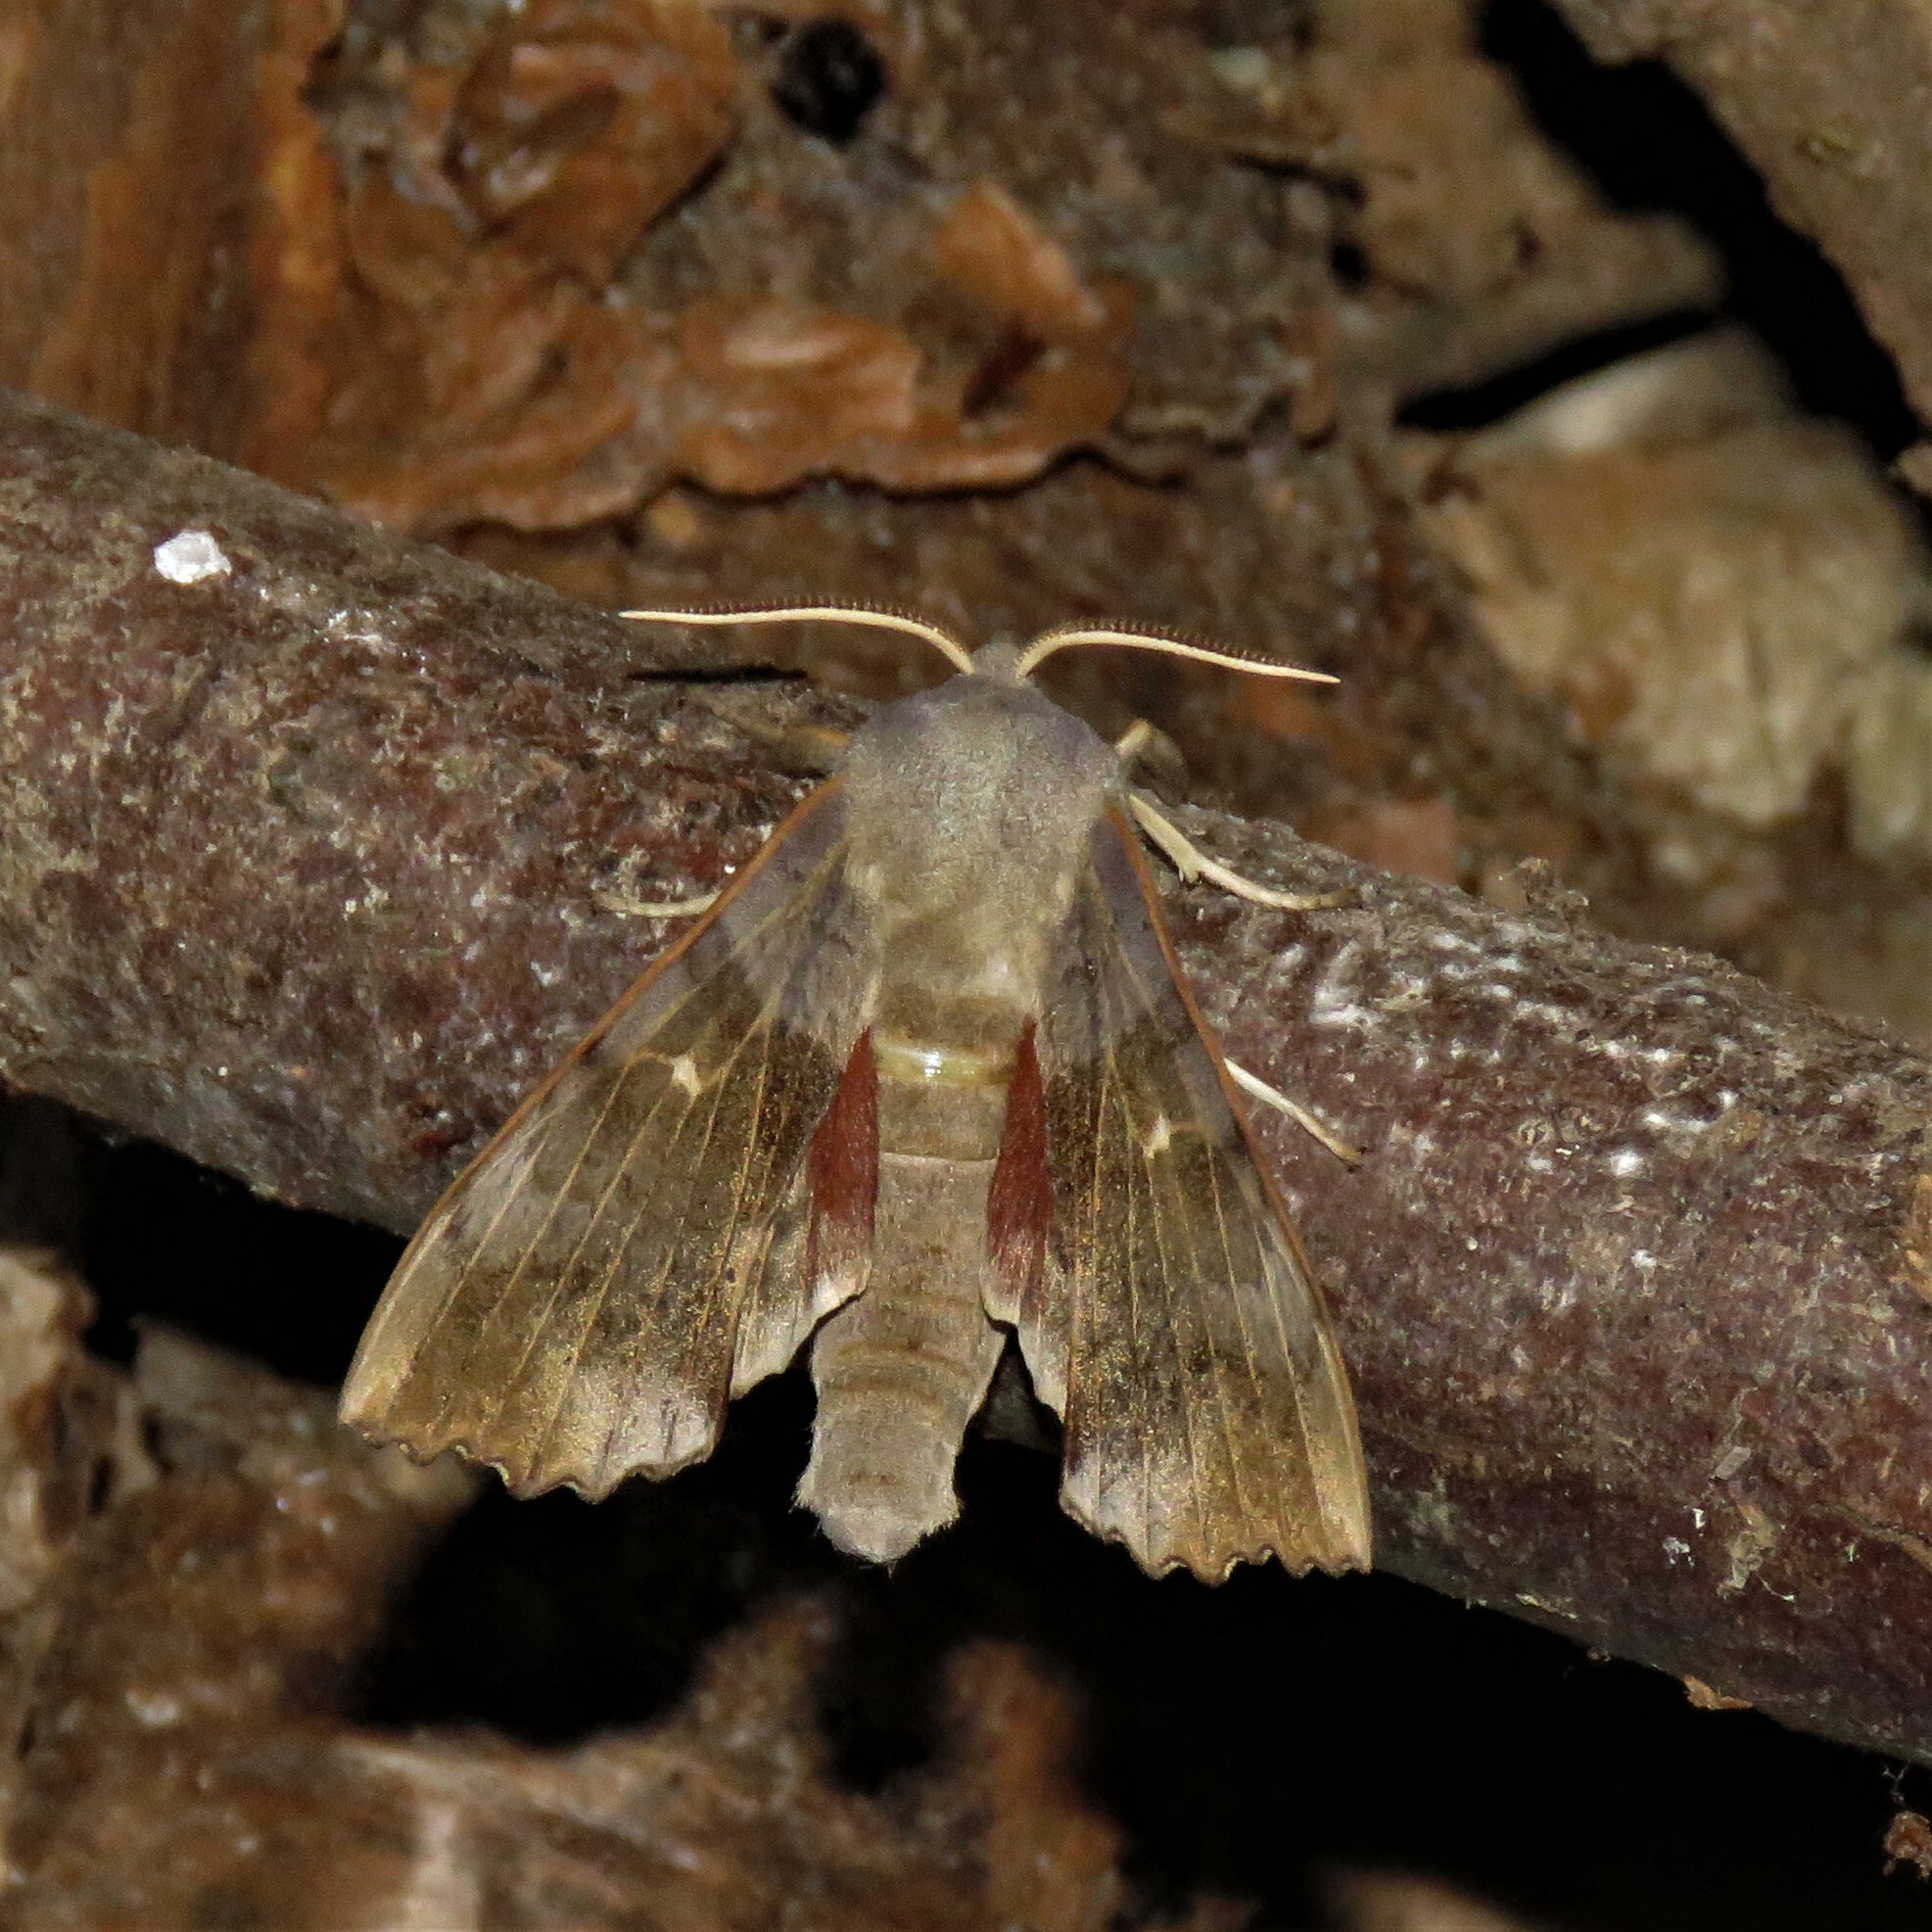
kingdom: Animalia
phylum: Arthropoda
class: Insecta
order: Lepidoptera
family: Sphingidae
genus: Laothoe
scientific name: Laothoe populi
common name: Poplar hawk-moth
